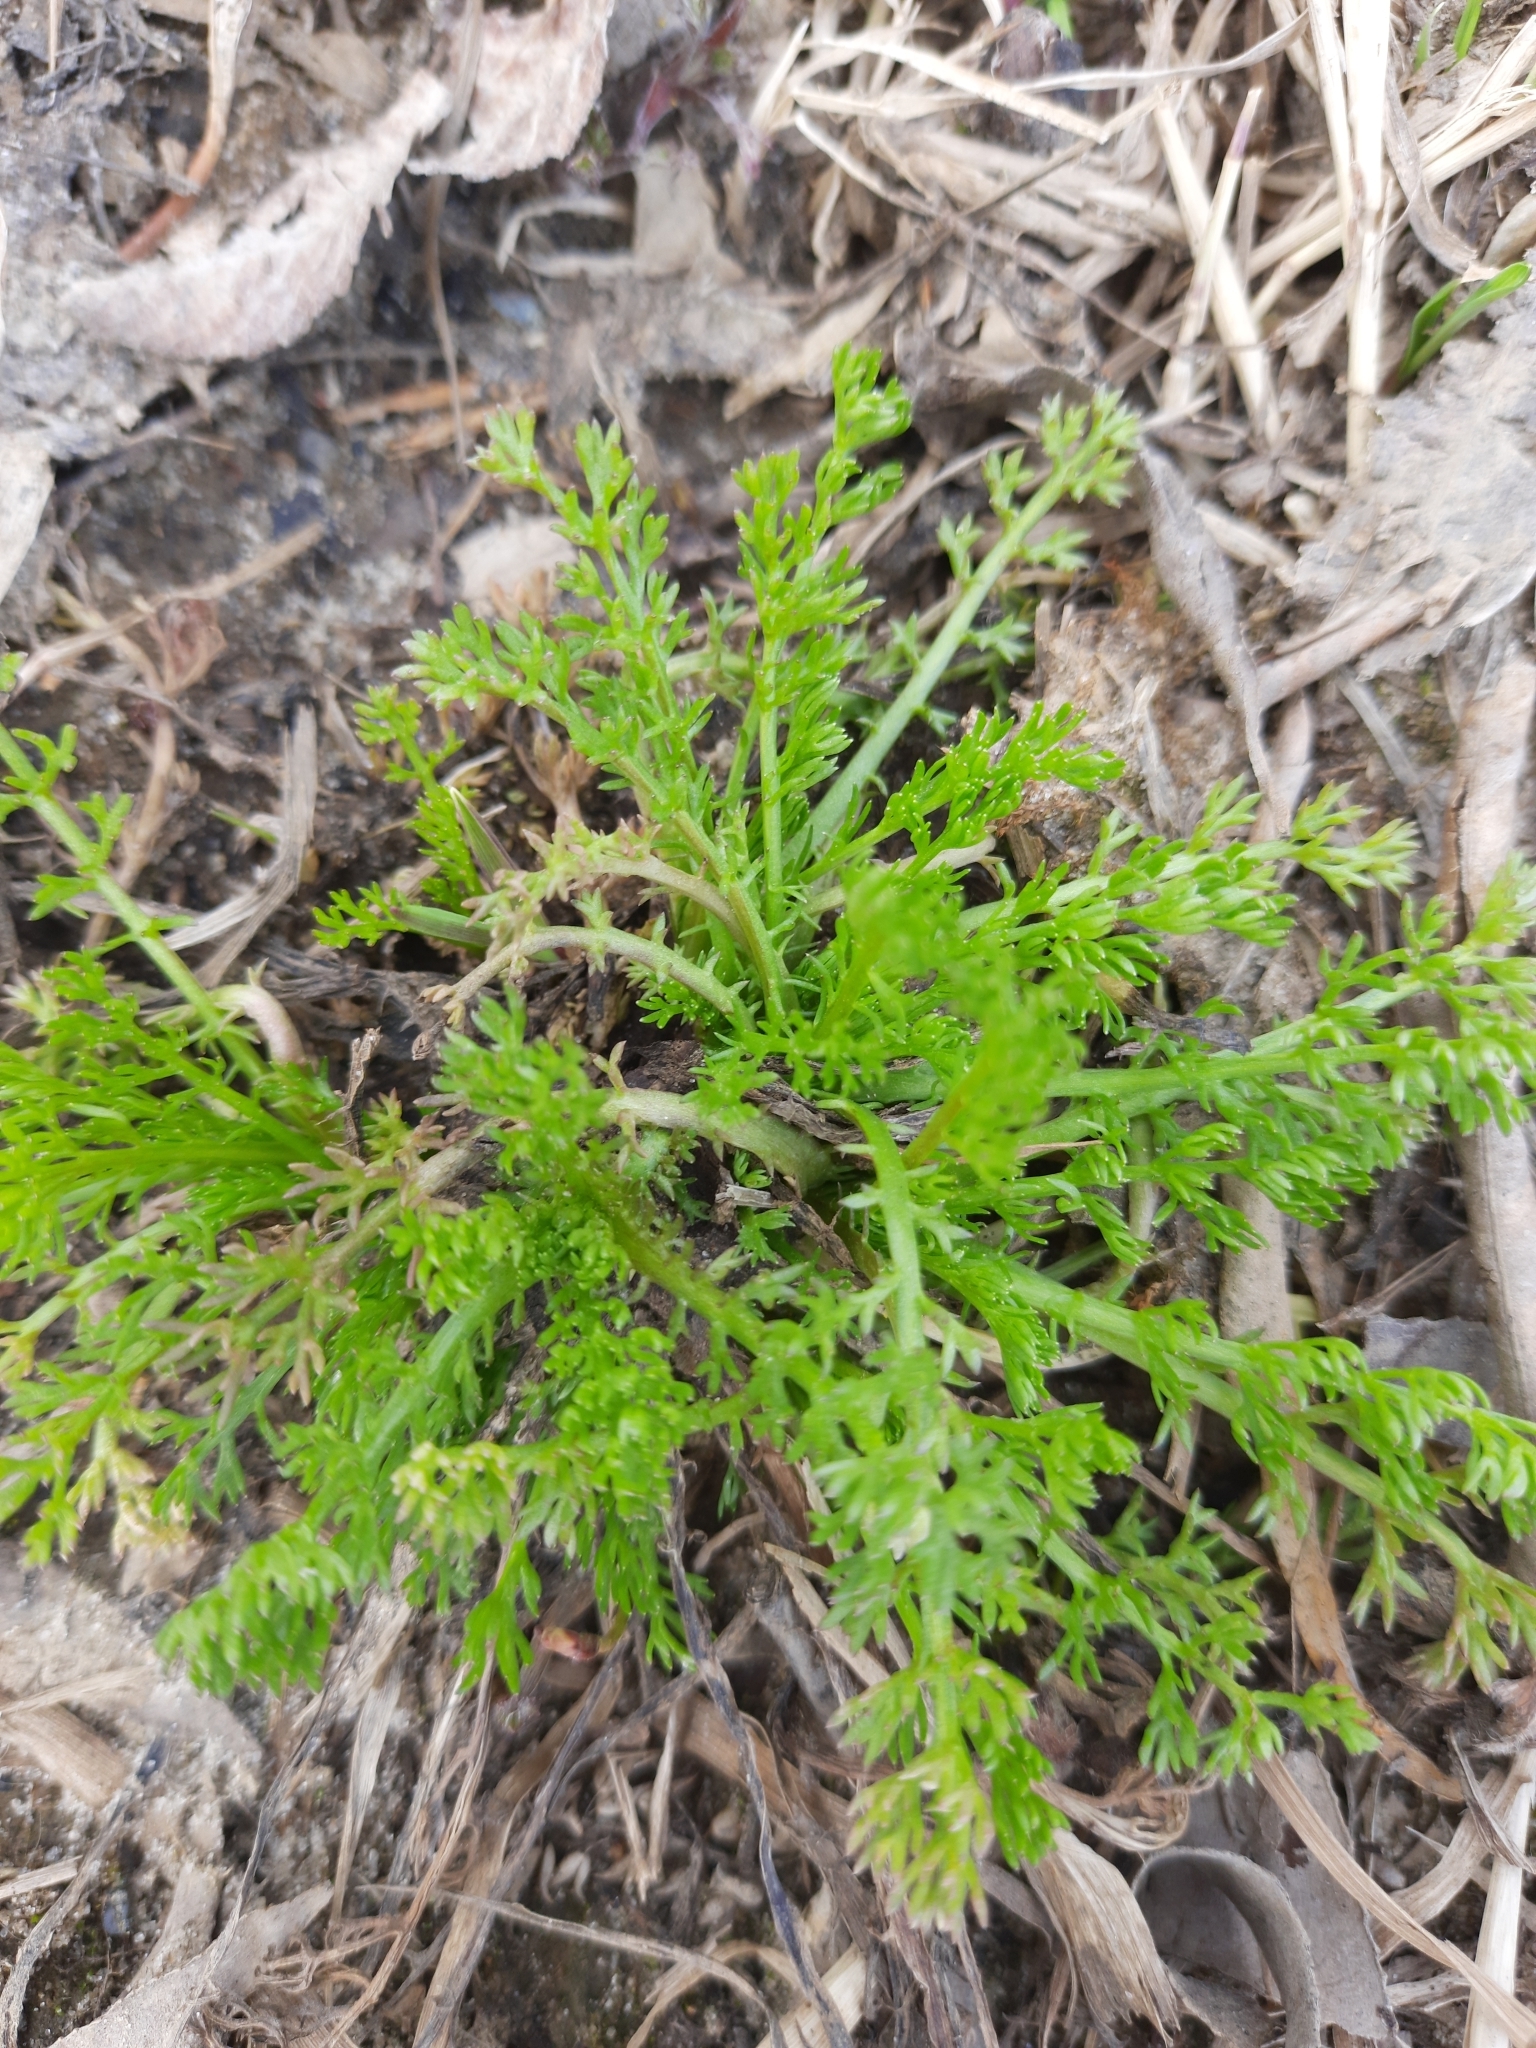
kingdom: Plantae
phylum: Tracheophyta
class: Magnoliopsida
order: Asterales
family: Asteraceae
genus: Tripleurospermum
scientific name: Tripleurospermum inodorum
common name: Scentless mayweed
